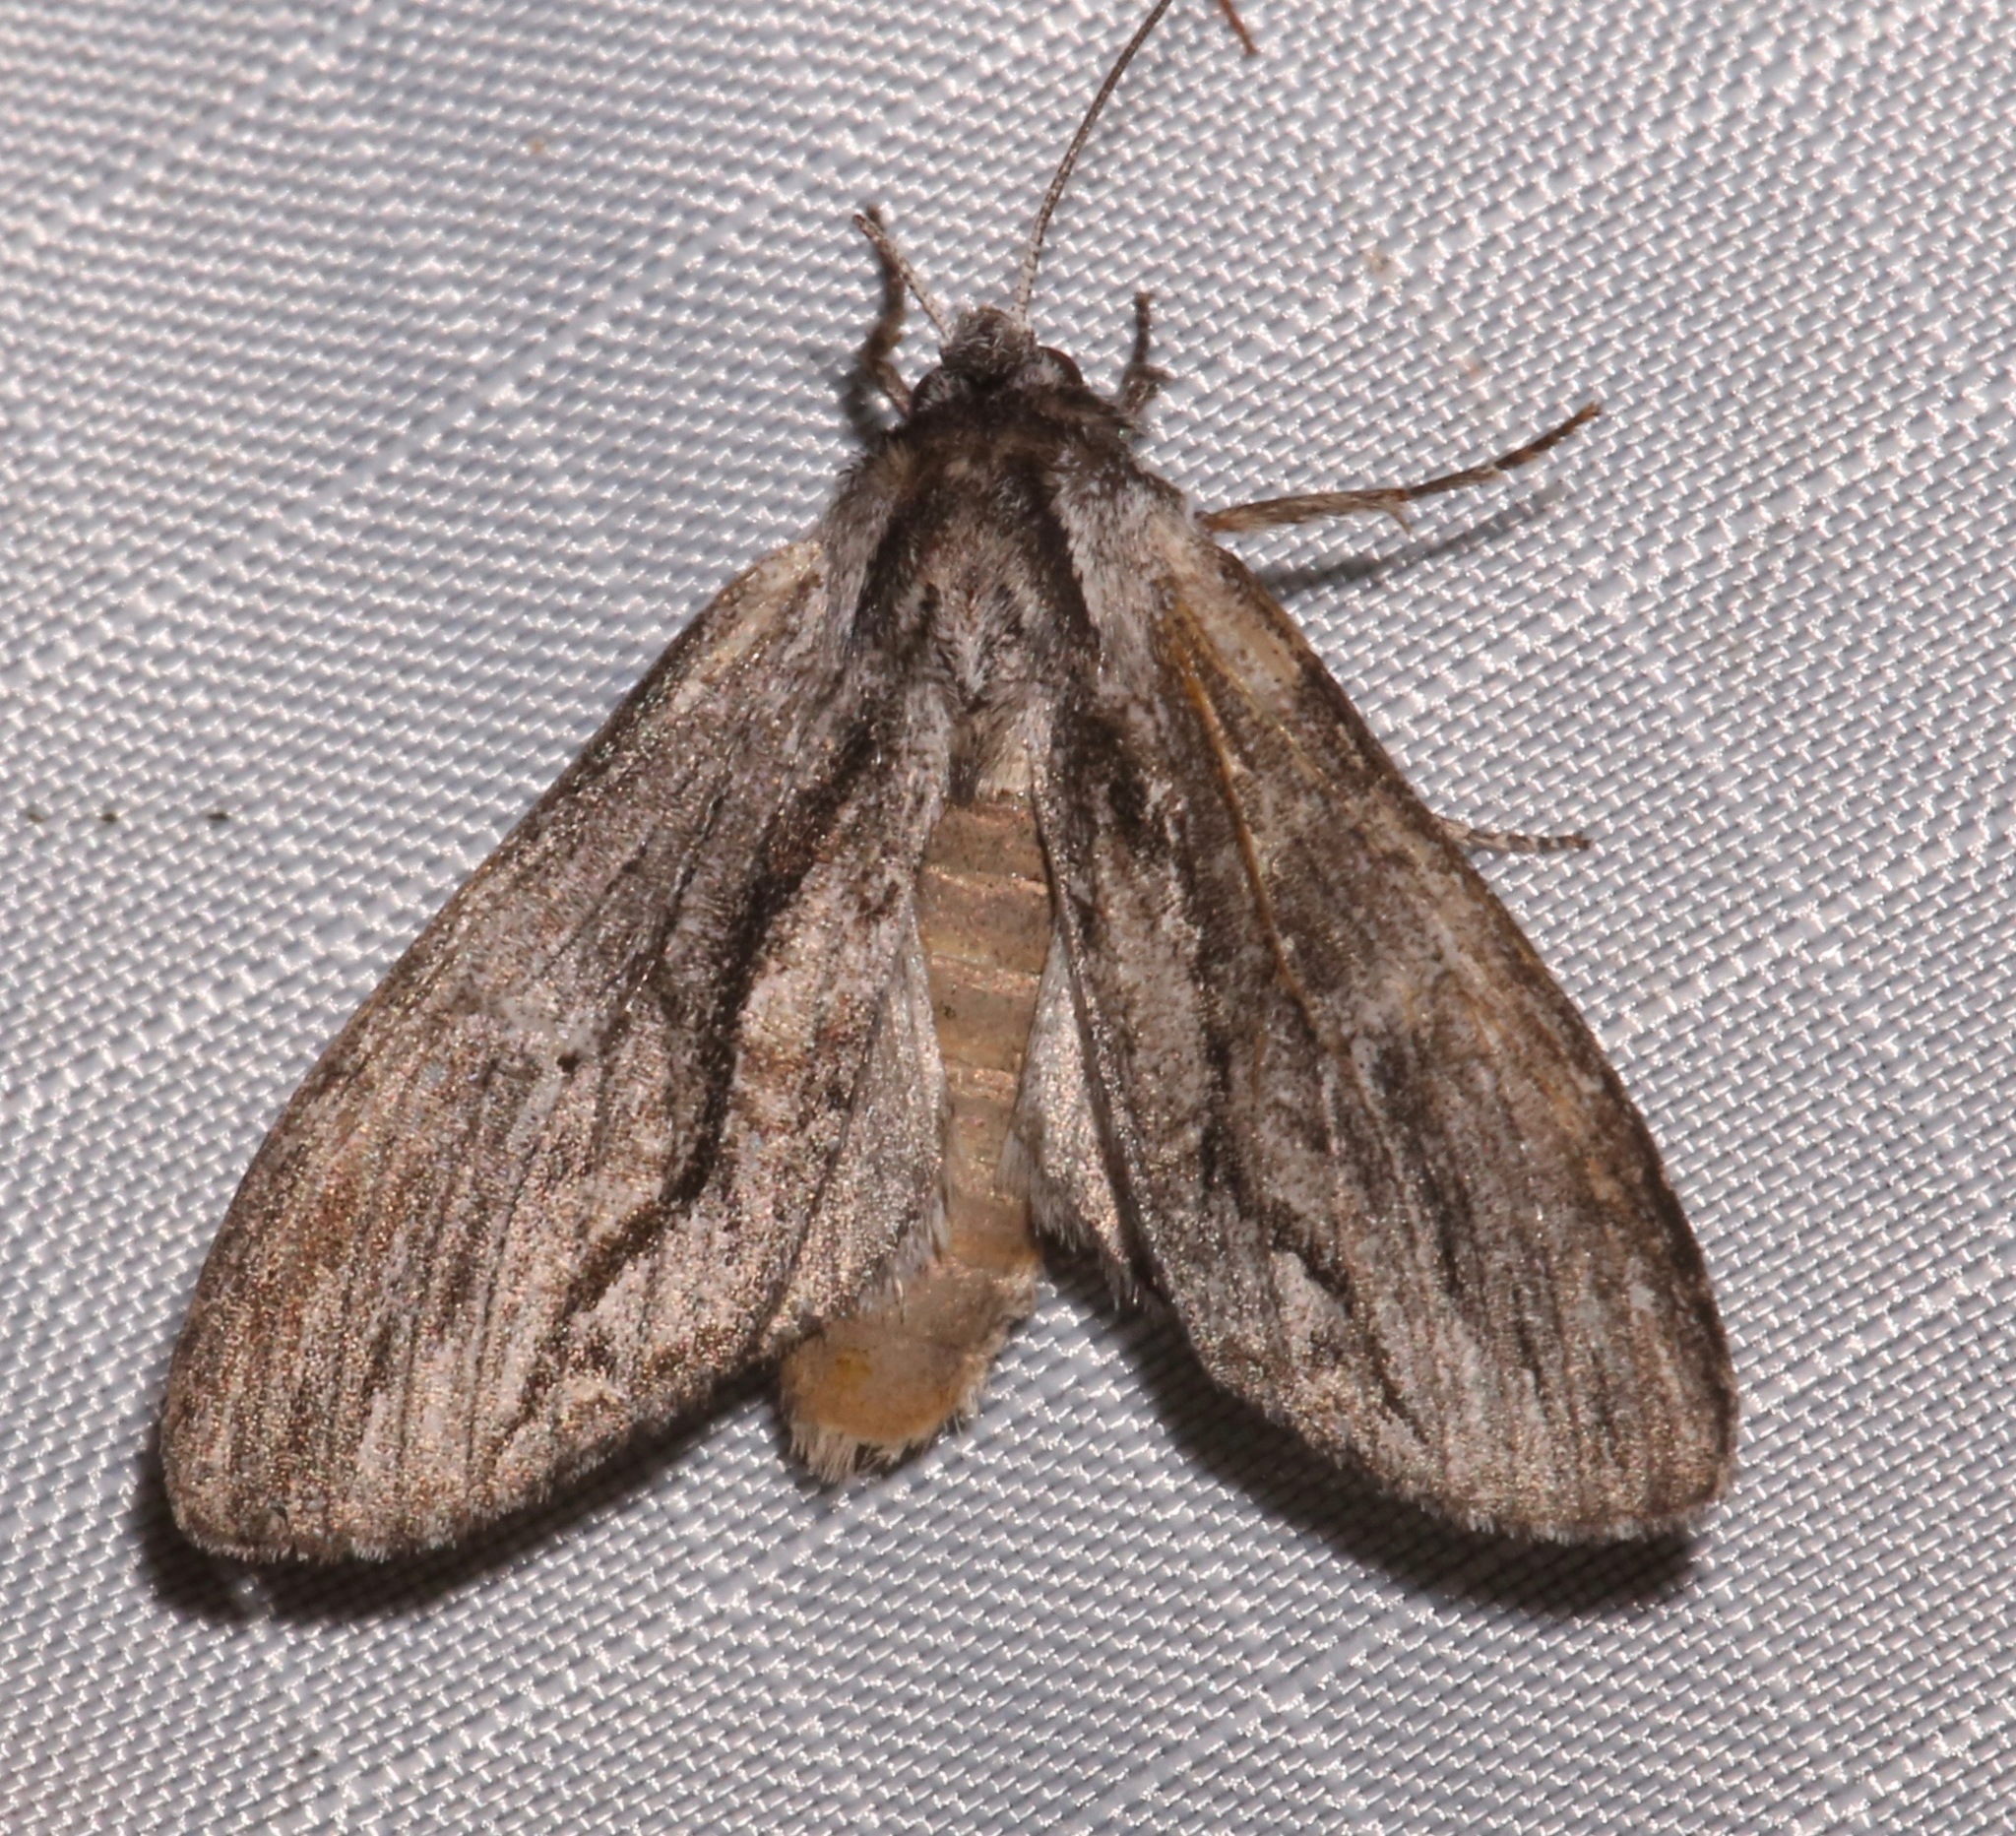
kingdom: Animalia
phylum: Arthropoda
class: Insecta
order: Lepidoptera
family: Notodontidae
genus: Notela
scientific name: Notela jaliscana
